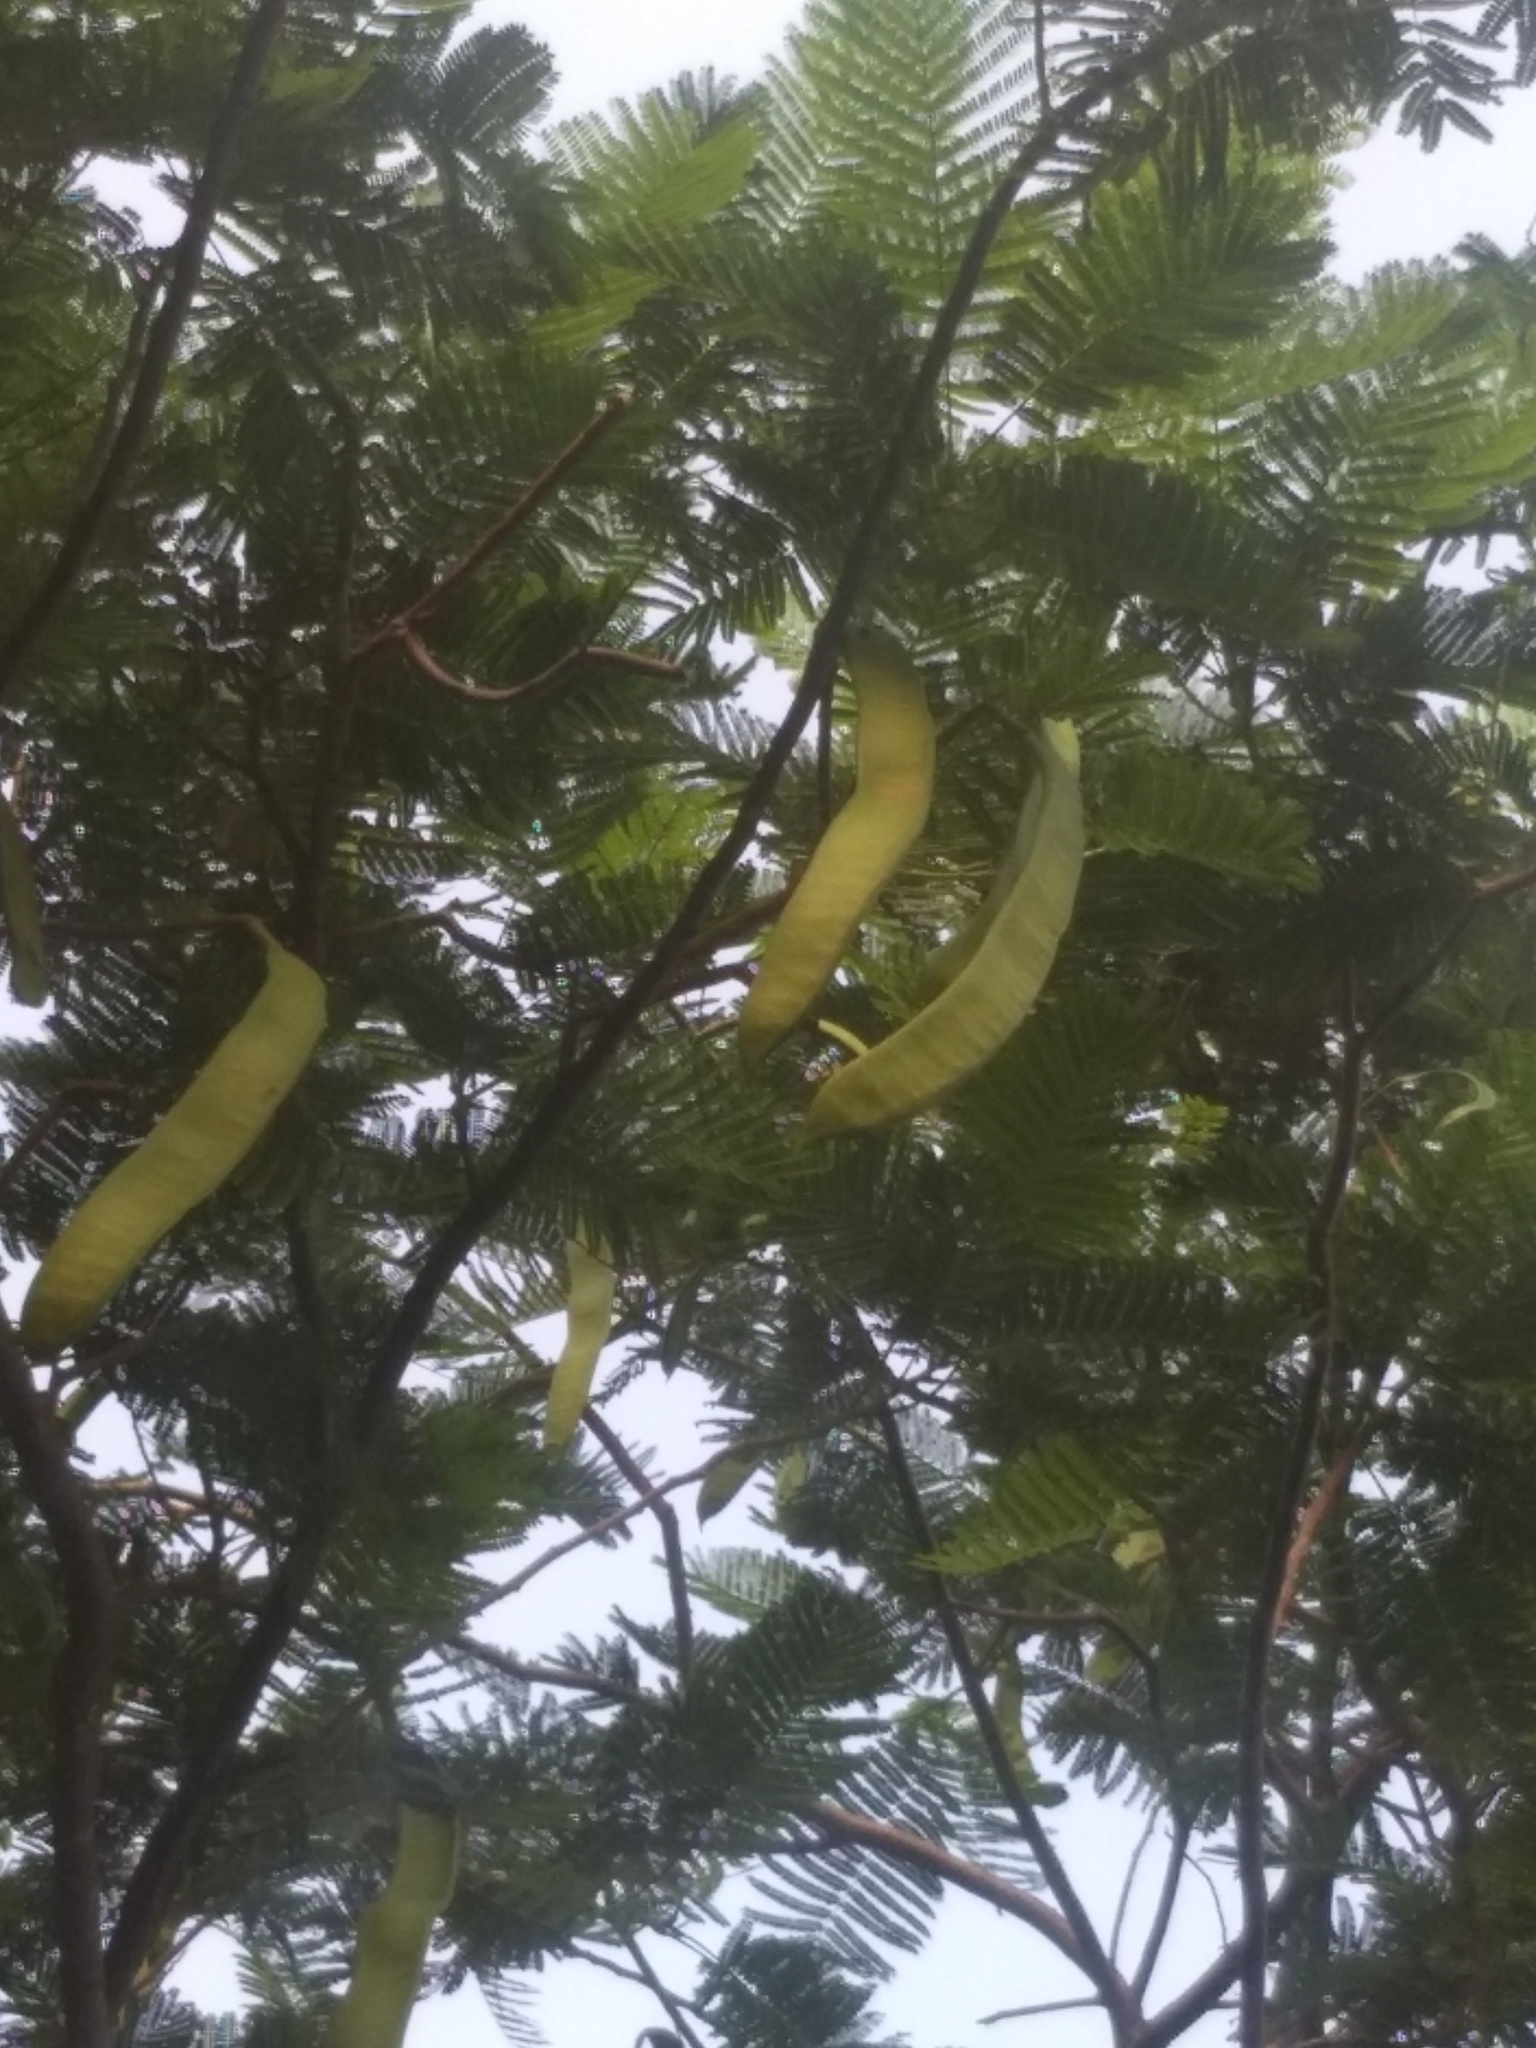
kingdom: Plantae
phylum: Tracheophyta
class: Magnoliopsida
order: Fabales
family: Fabaceae
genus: Delonix
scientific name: Delonix regia
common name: Royal poinciana
